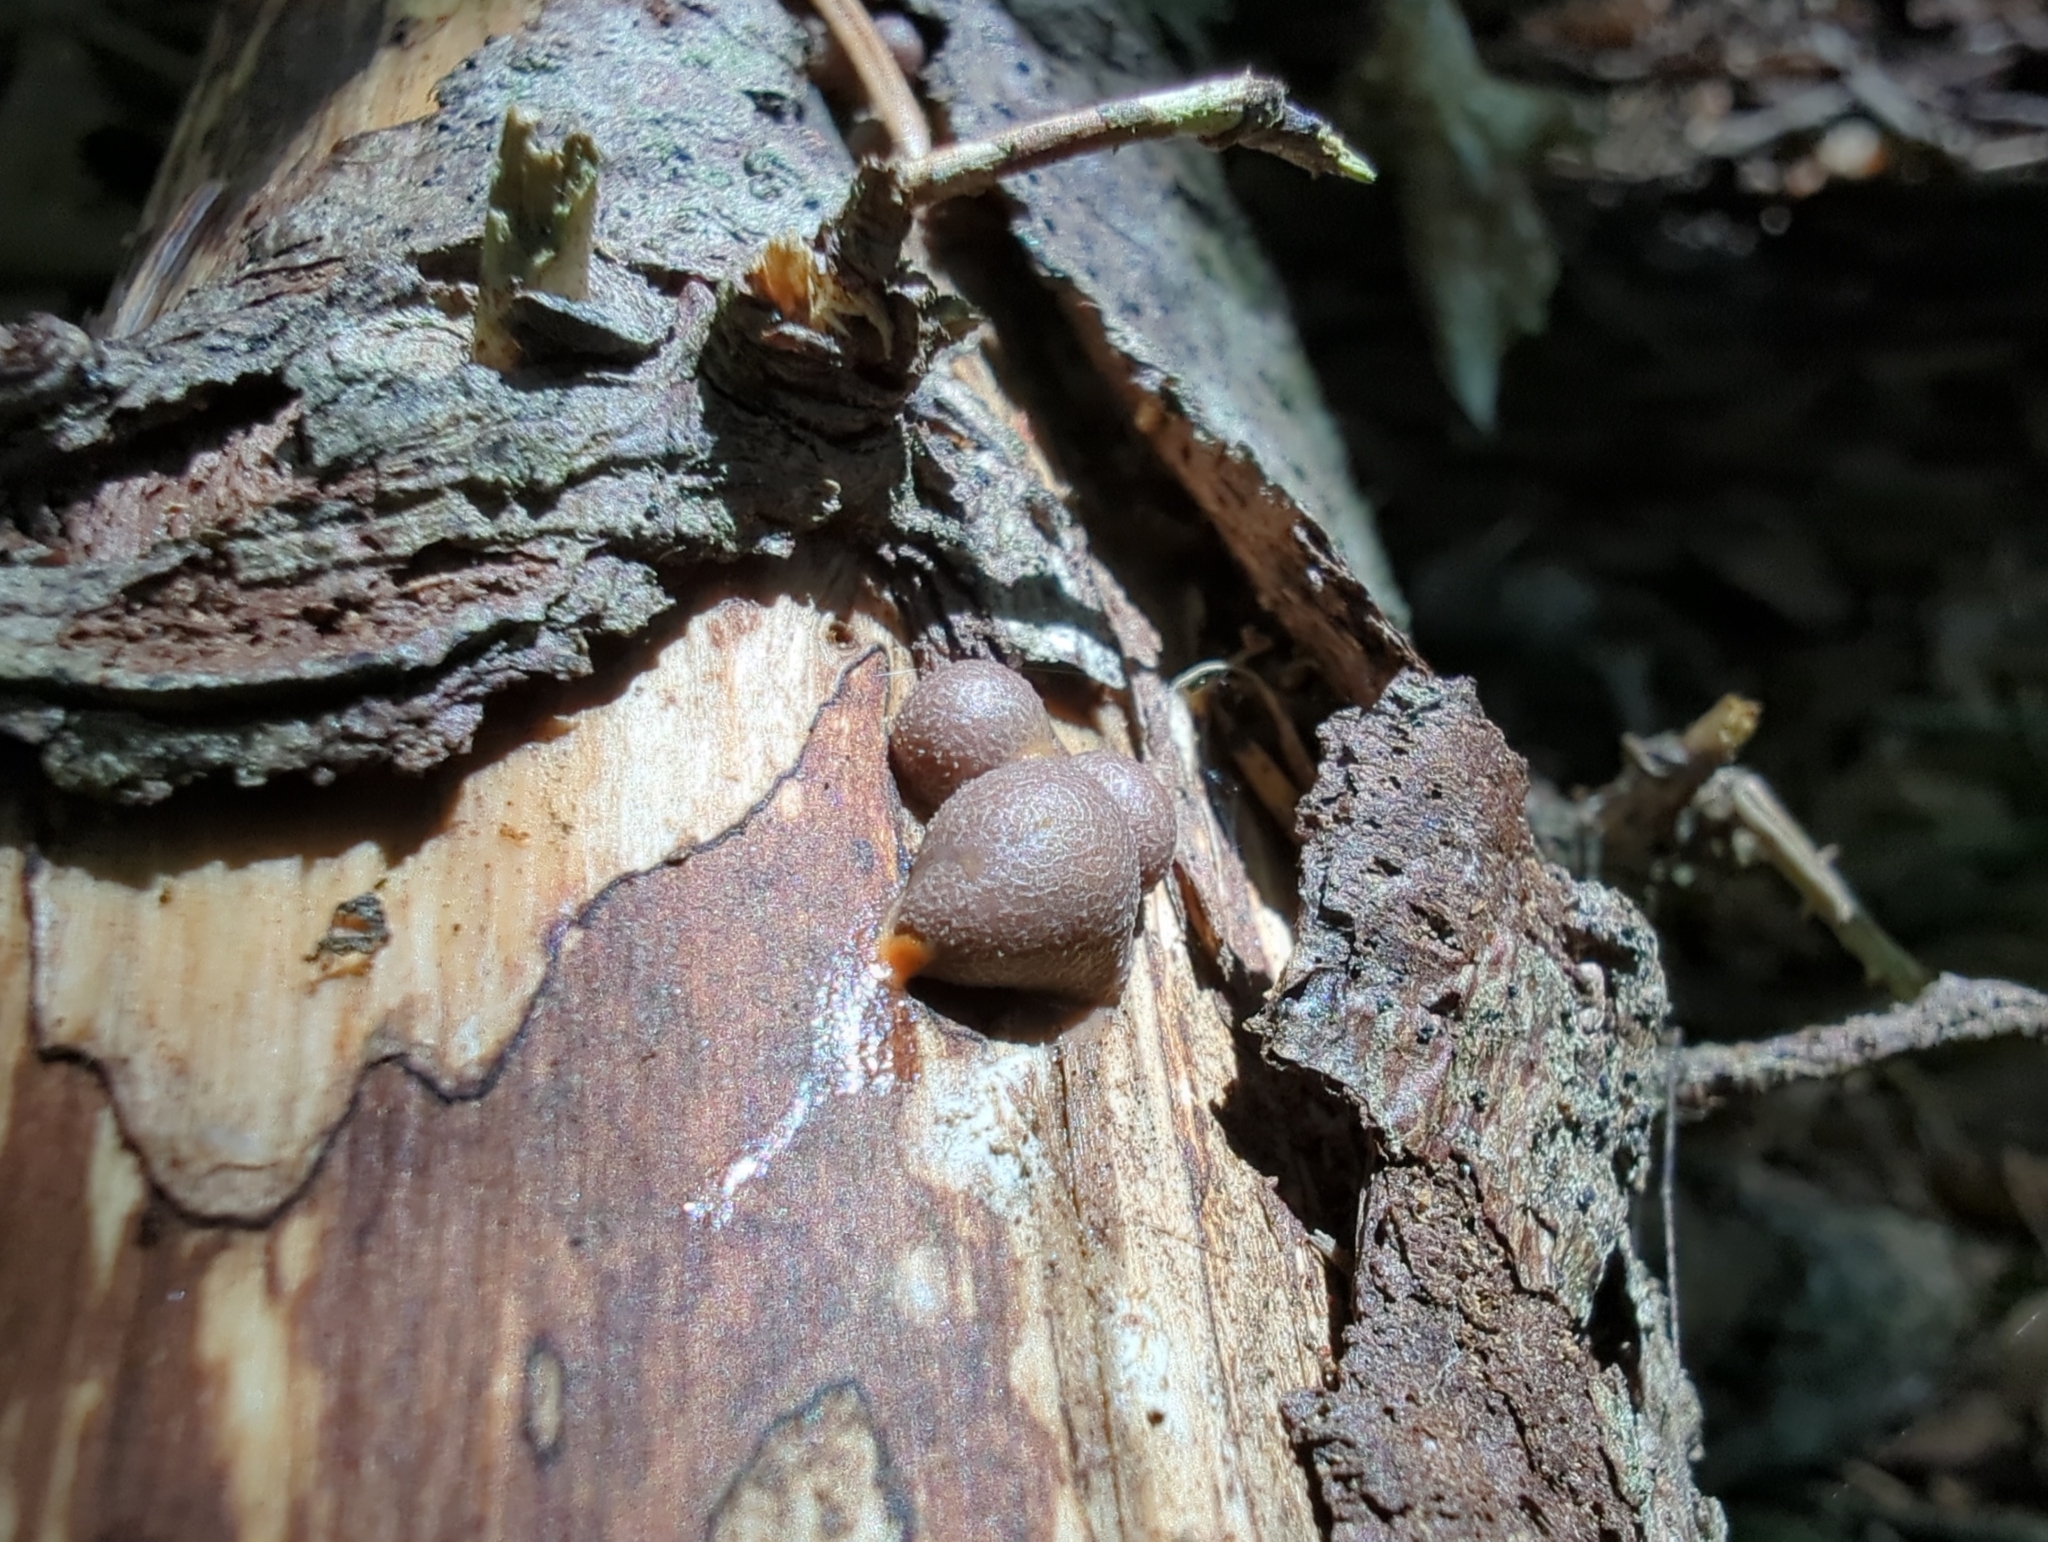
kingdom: Protozoa
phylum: Mycetozoa
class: Myxomycetes
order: Cribrariales
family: Tubiferaceae
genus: Lycogala
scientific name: Lycogala epidendrum
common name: Wolf's milk
